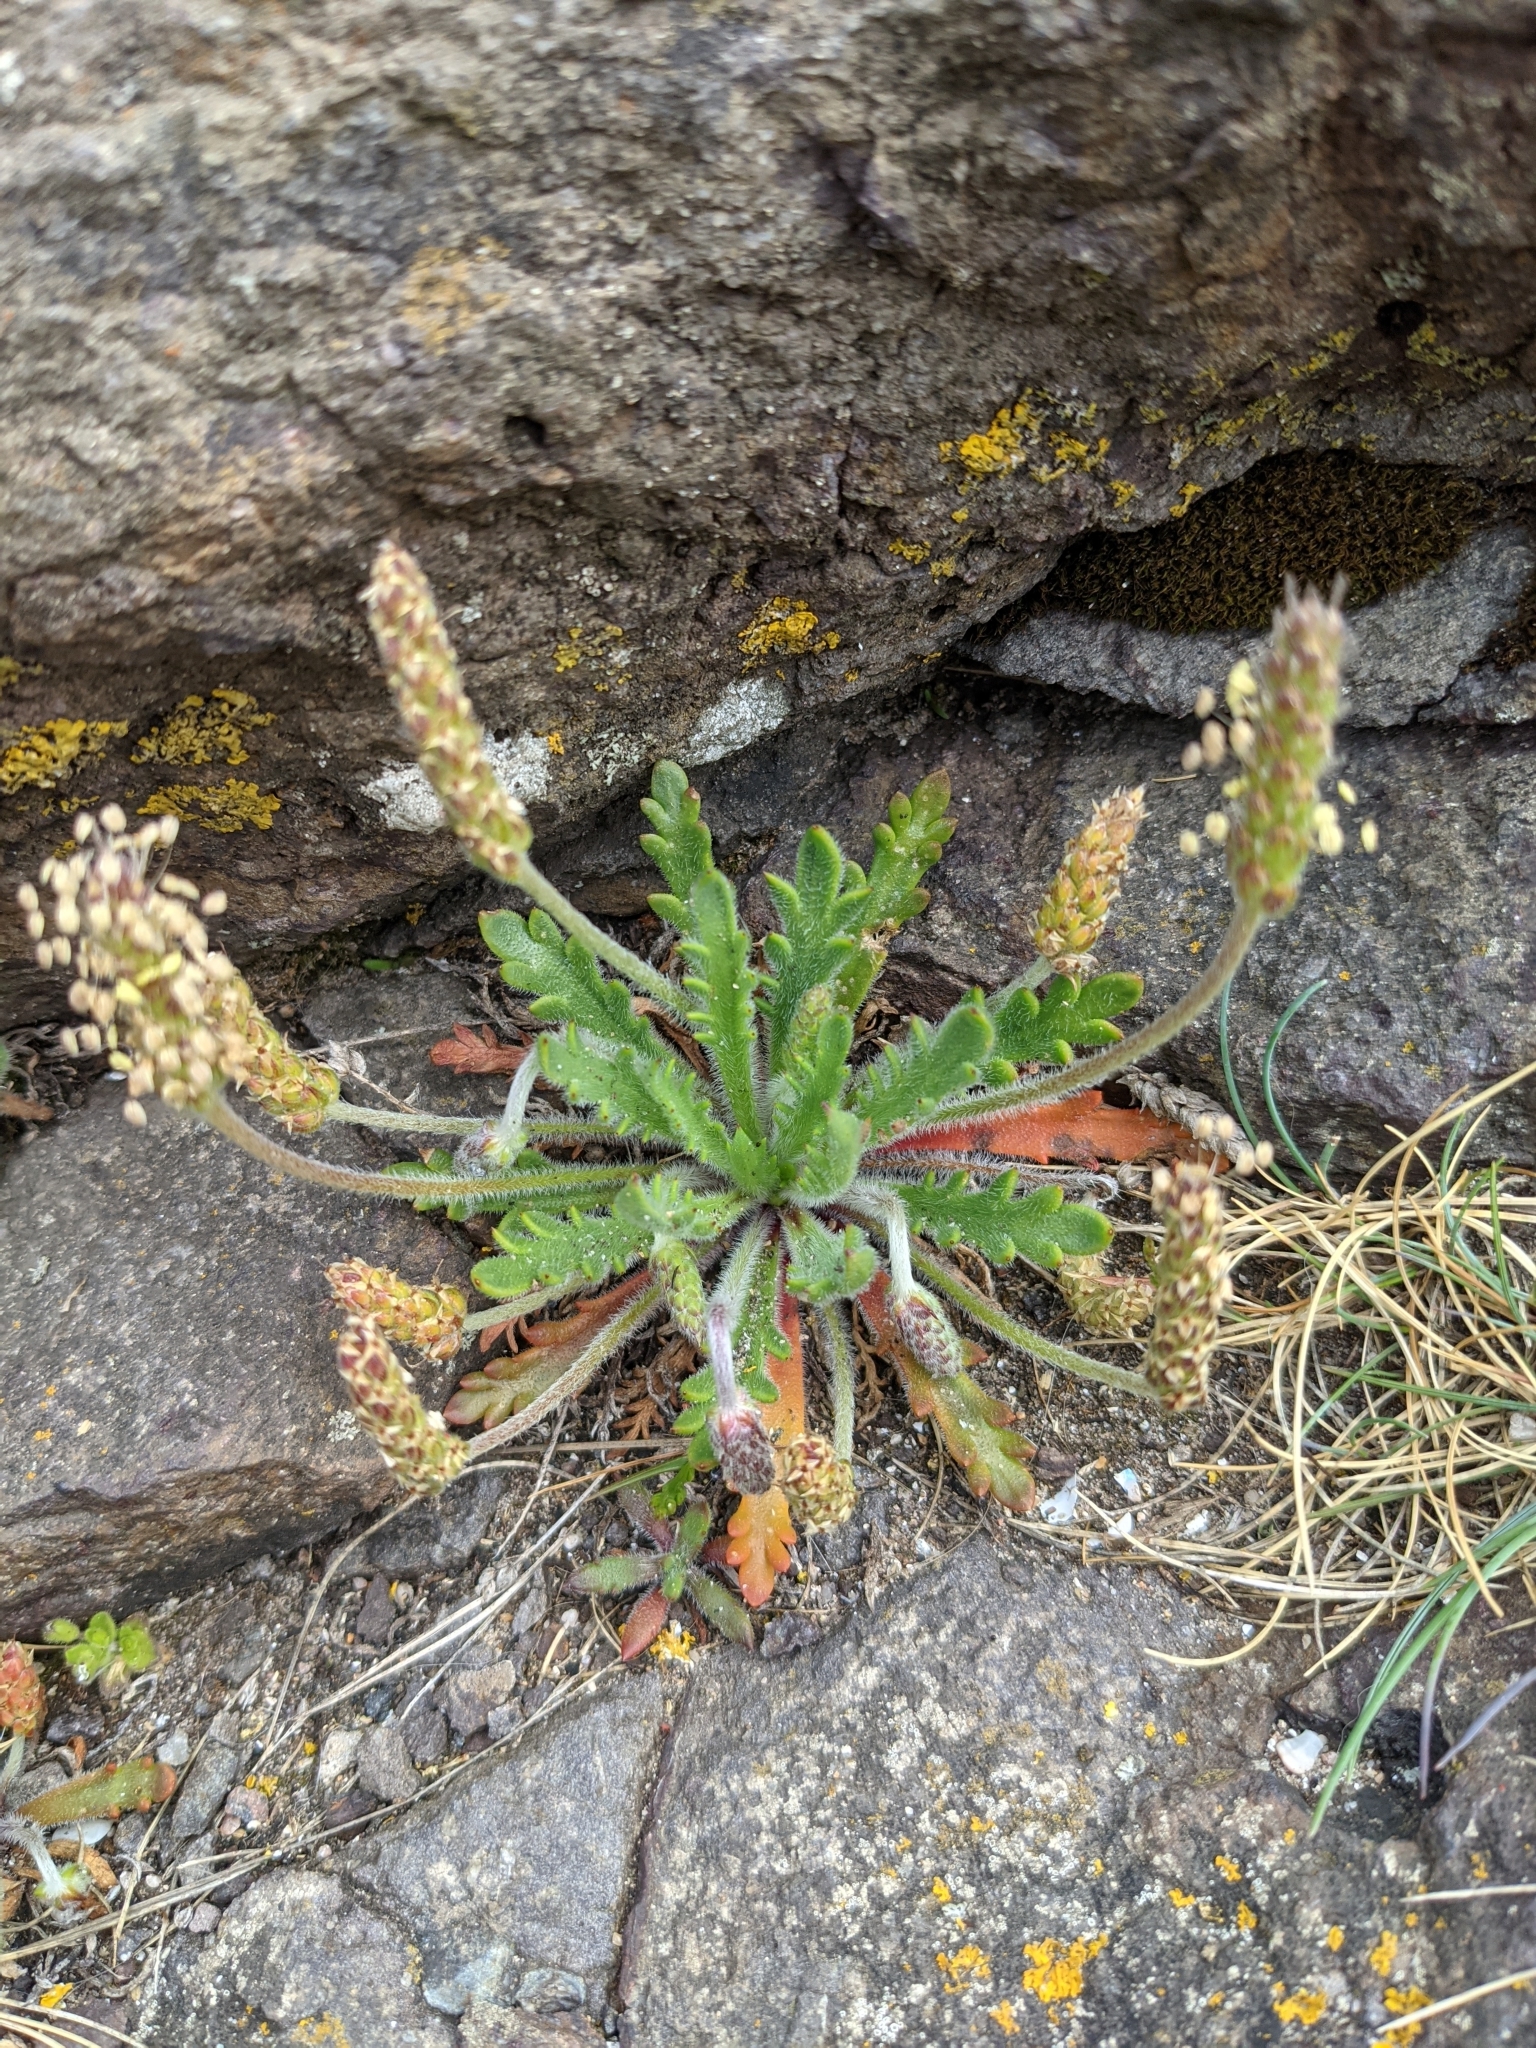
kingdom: Plantae
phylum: Tracheophyta
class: Magnoliopsida
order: Lamiales
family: Plantaginaceae
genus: Plantago
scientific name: Plantago coronopus
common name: Buck's-horn plantain
